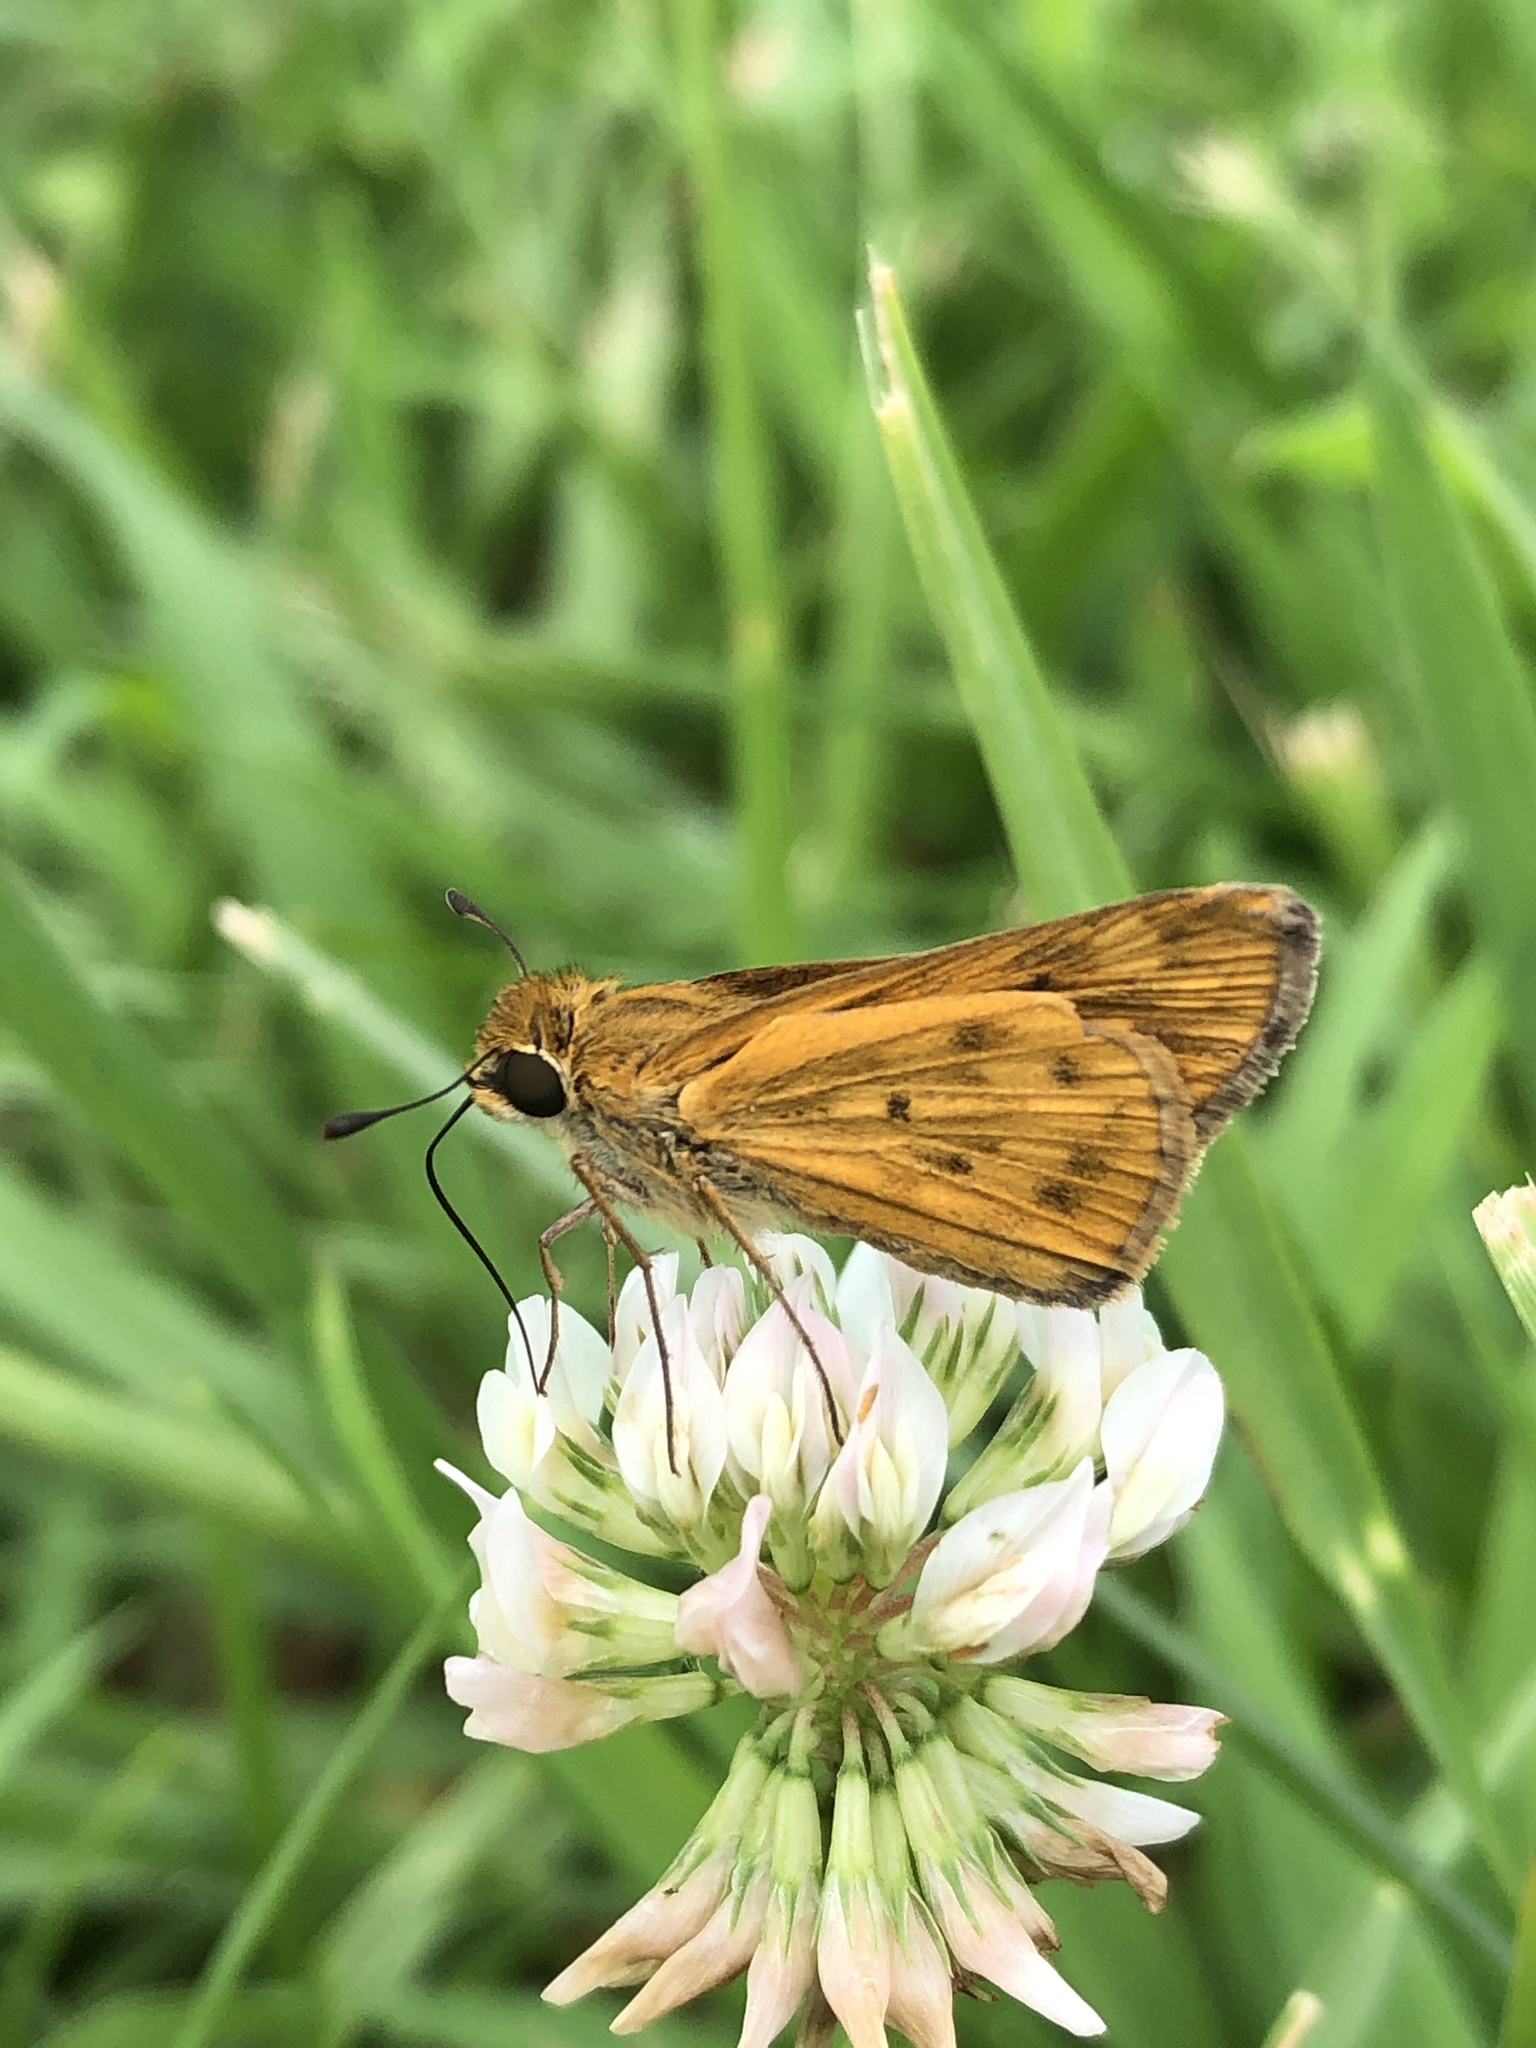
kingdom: Animalia
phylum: Arthropoda
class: Insecta
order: Lepidoptera
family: Hesperiidae
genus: Hylephila
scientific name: Hylephila phyleus
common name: Fiery skipper
